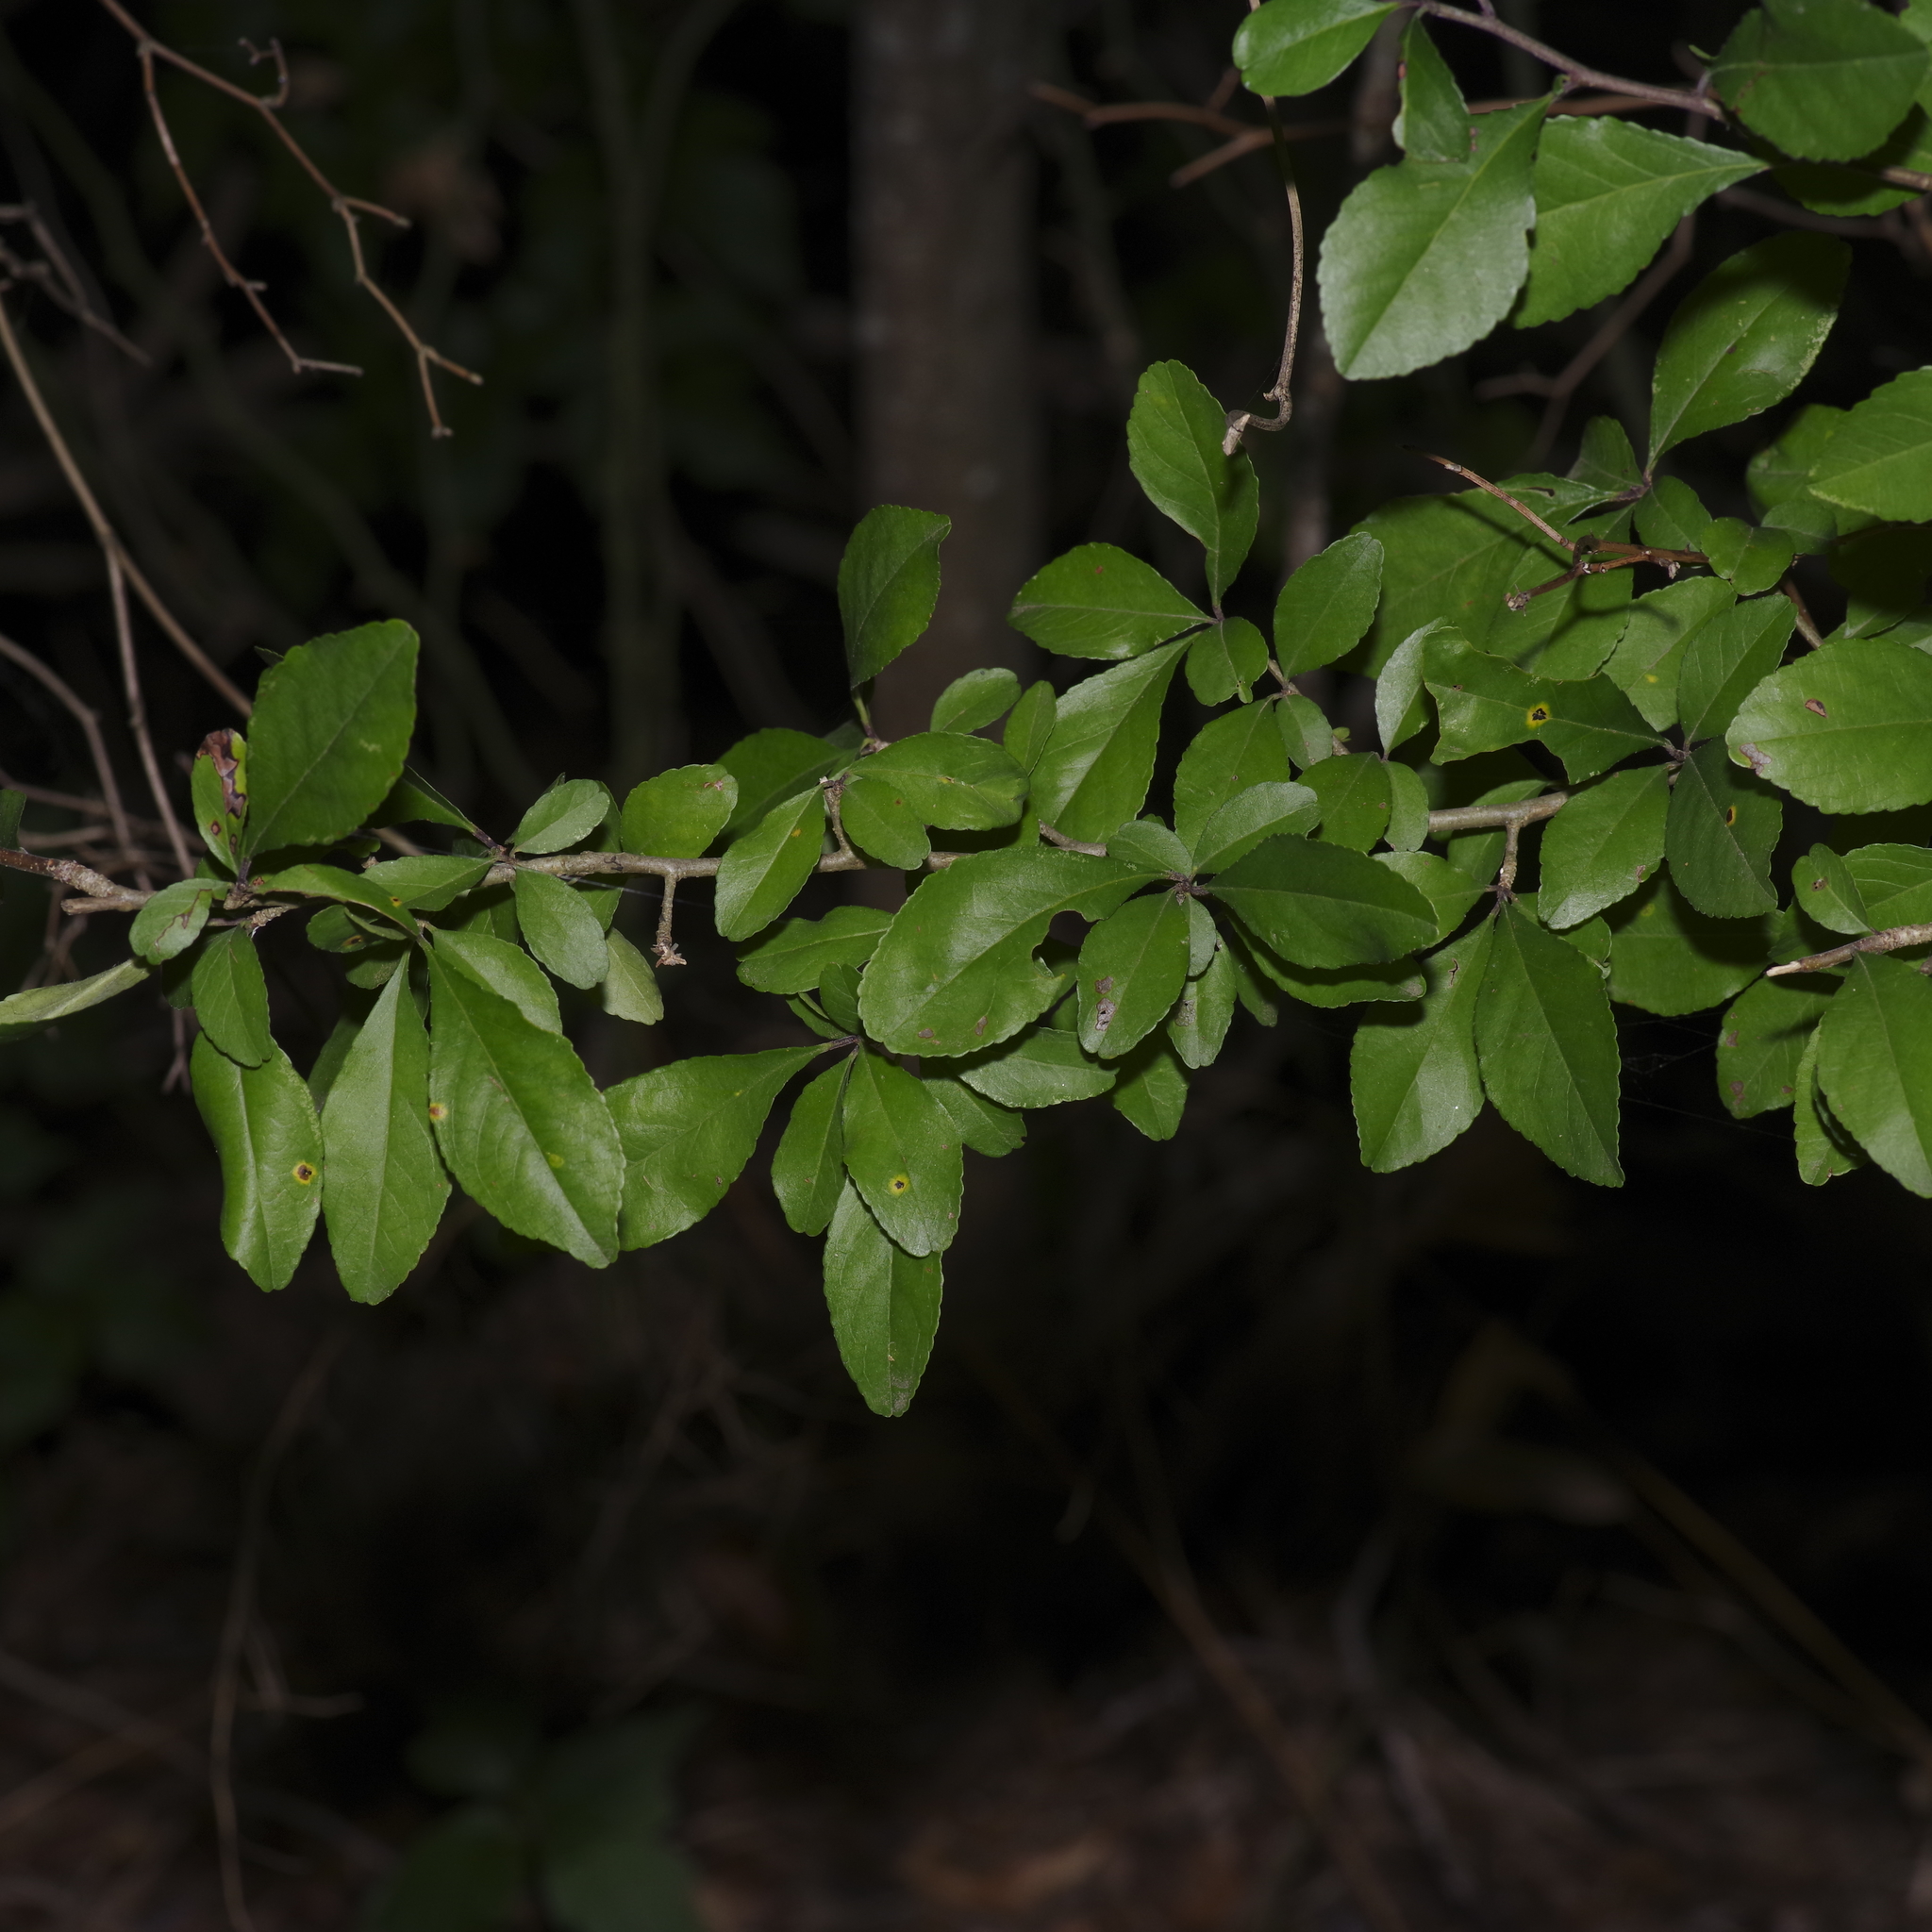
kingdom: Plantae
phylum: Tracheophyta
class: Magnoliopsida
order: Aquifoliales
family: Aquifoliaceae
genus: Ilex
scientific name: Ilex decidua
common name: Possum-haw
